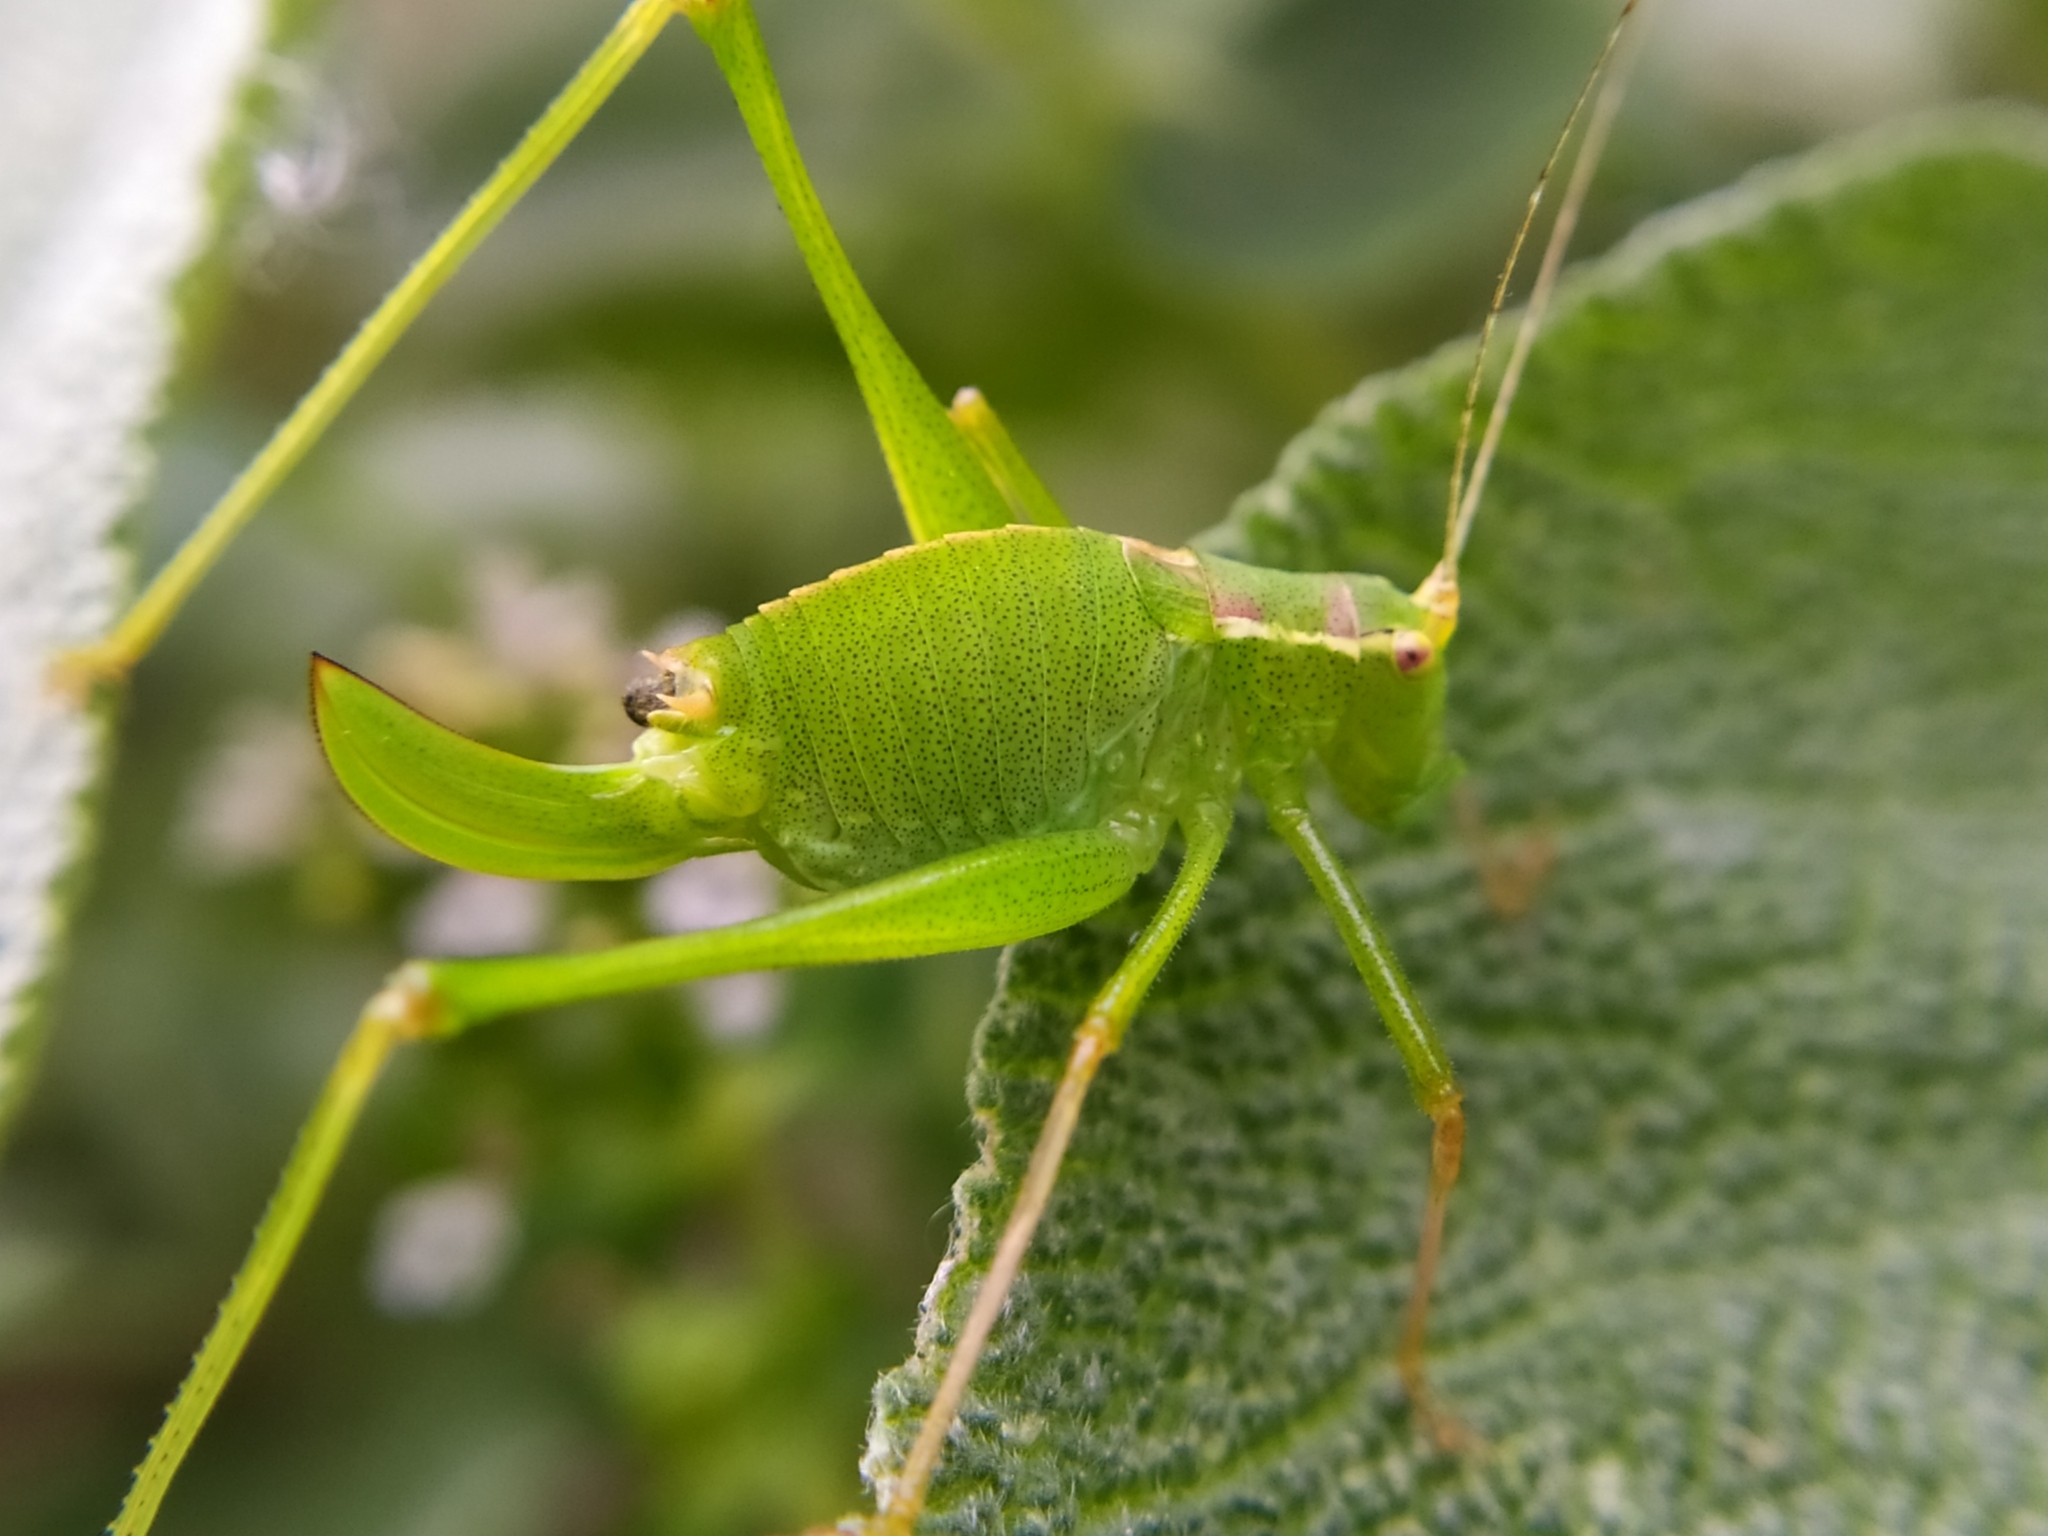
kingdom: Animalia
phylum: Arthropoda
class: Insecta
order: Orthoptera
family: Tettigoniidae
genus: Leptophyes
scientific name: Leptophyes punctatissima
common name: Speckled bush-cricket
